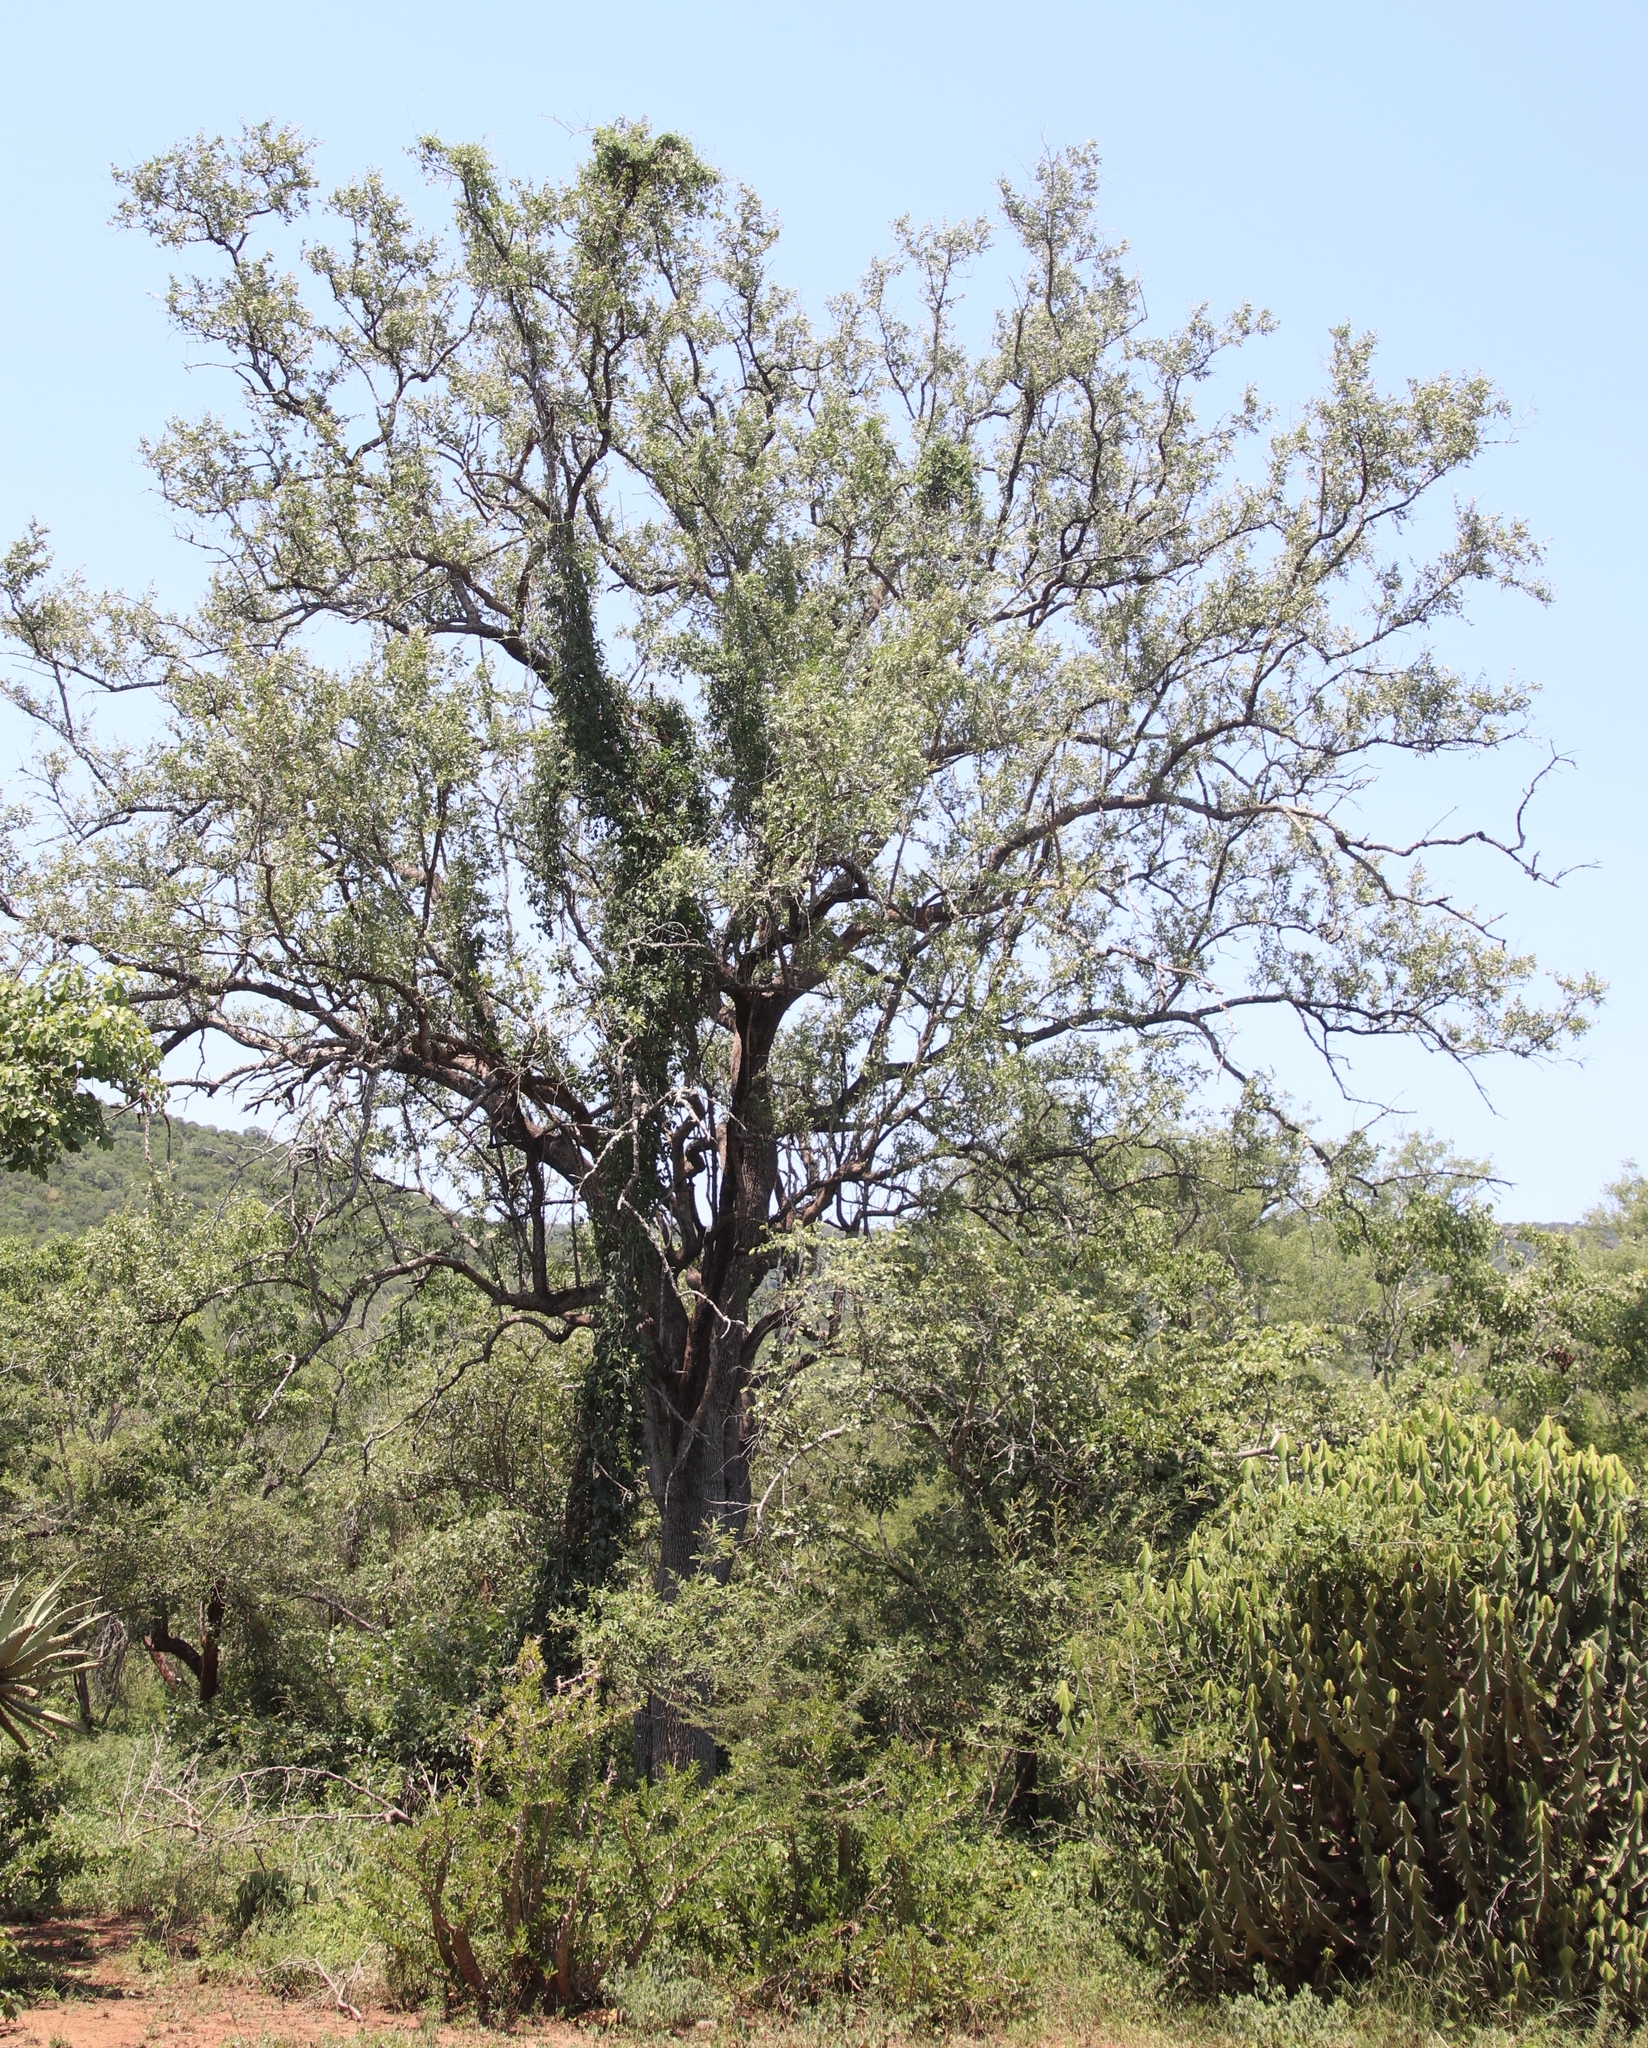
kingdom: Plantae
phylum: Tracheophyta
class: Magnoliopsida
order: Myrtales
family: Combretaceae
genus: Combretum
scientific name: Combretum imberbe
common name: Leadwood
